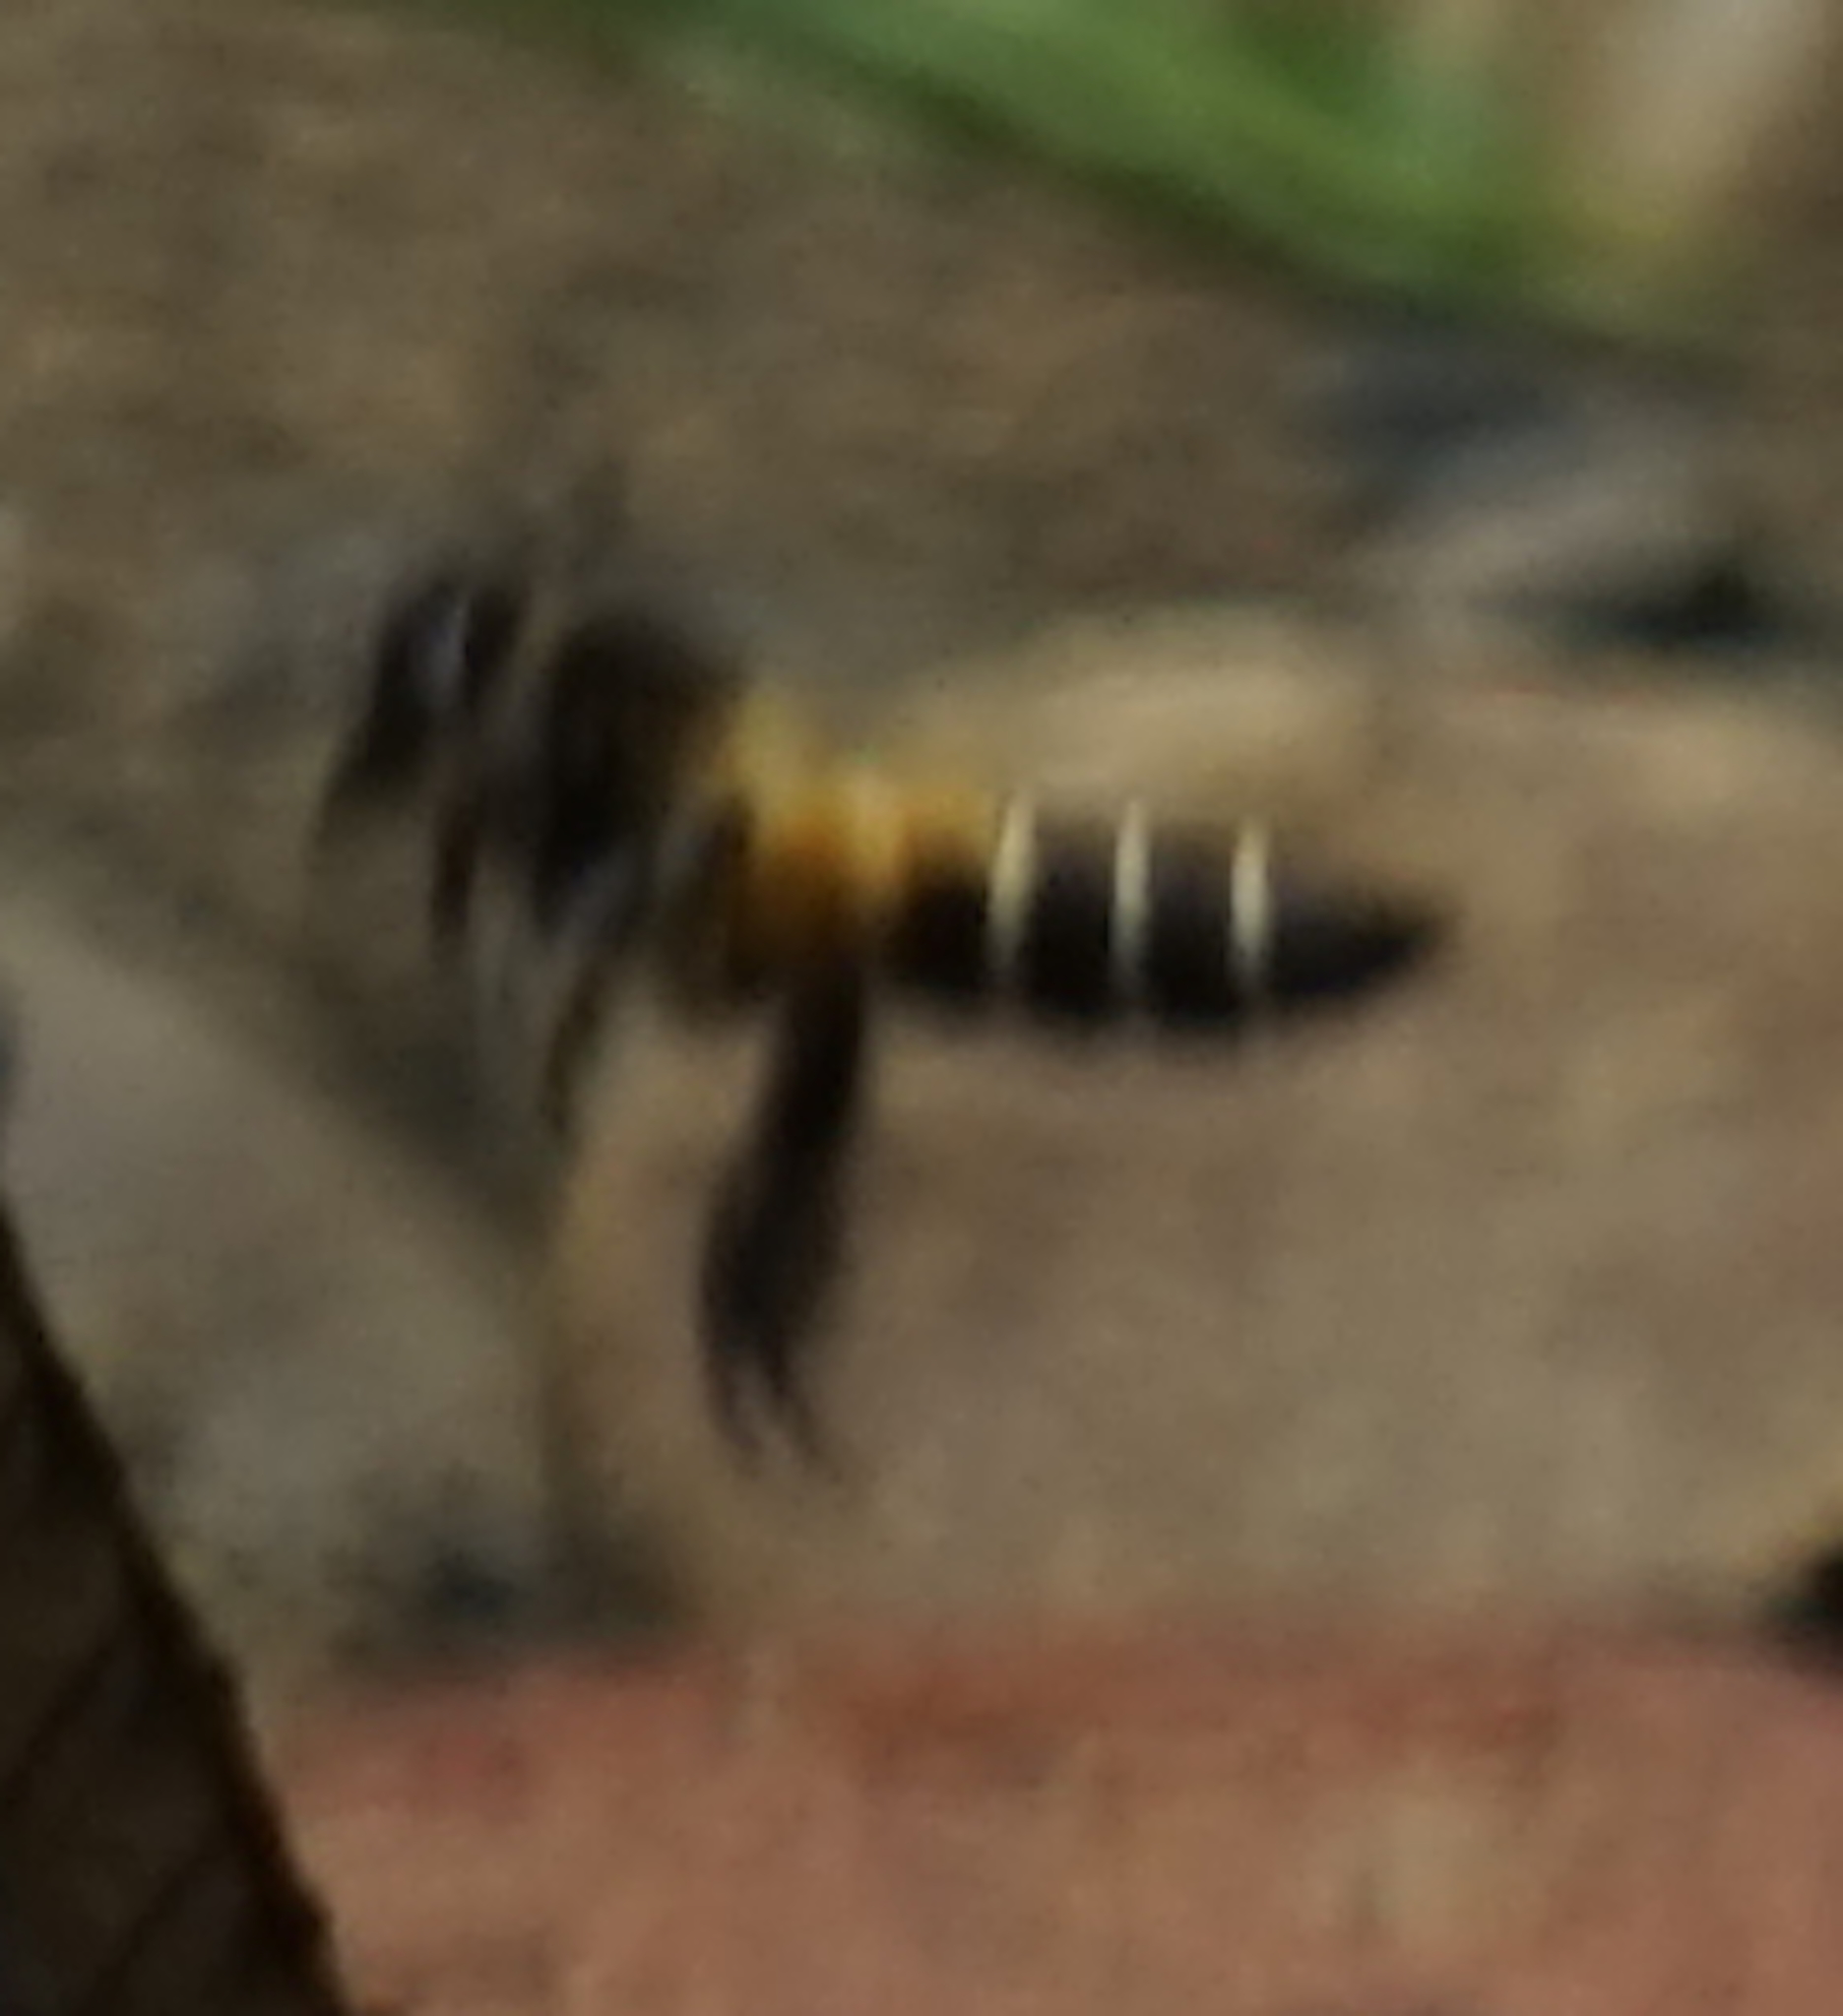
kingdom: Animalia
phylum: Arthropoda
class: Insecta
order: Hymenoptera
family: Apidae
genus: Apis
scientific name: Apis dorsata
